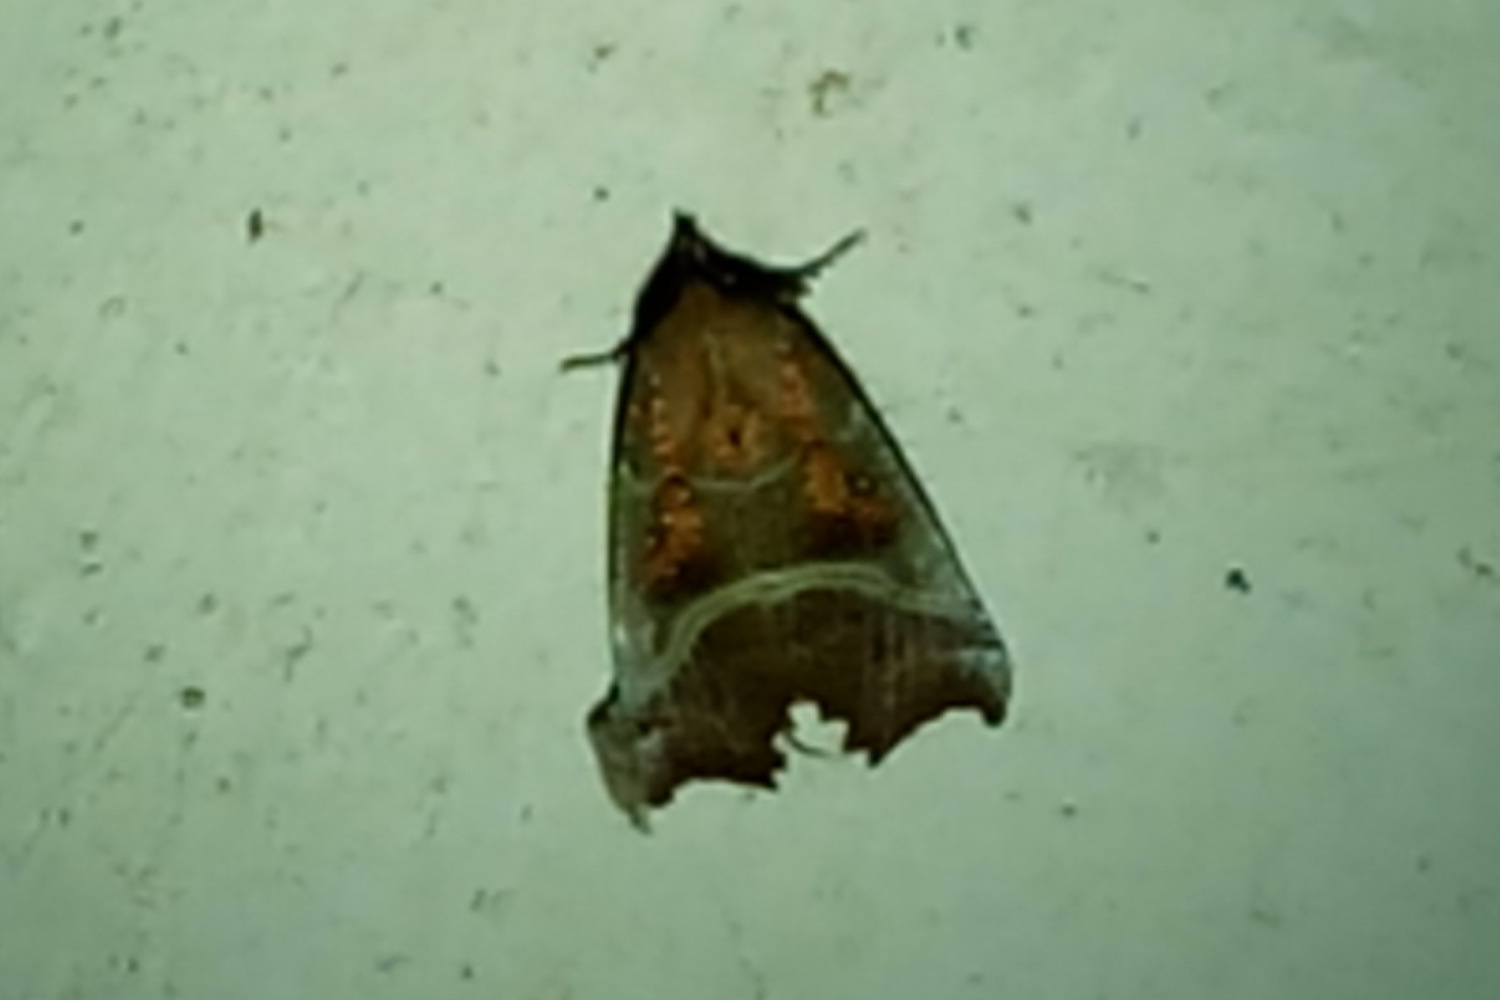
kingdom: Animalia
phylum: Arthropoda
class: Insecta
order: Lepidoptera
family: Erebidae
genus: Scoliopteryx
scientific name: Scoliopteryx libatrix
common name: Herald
